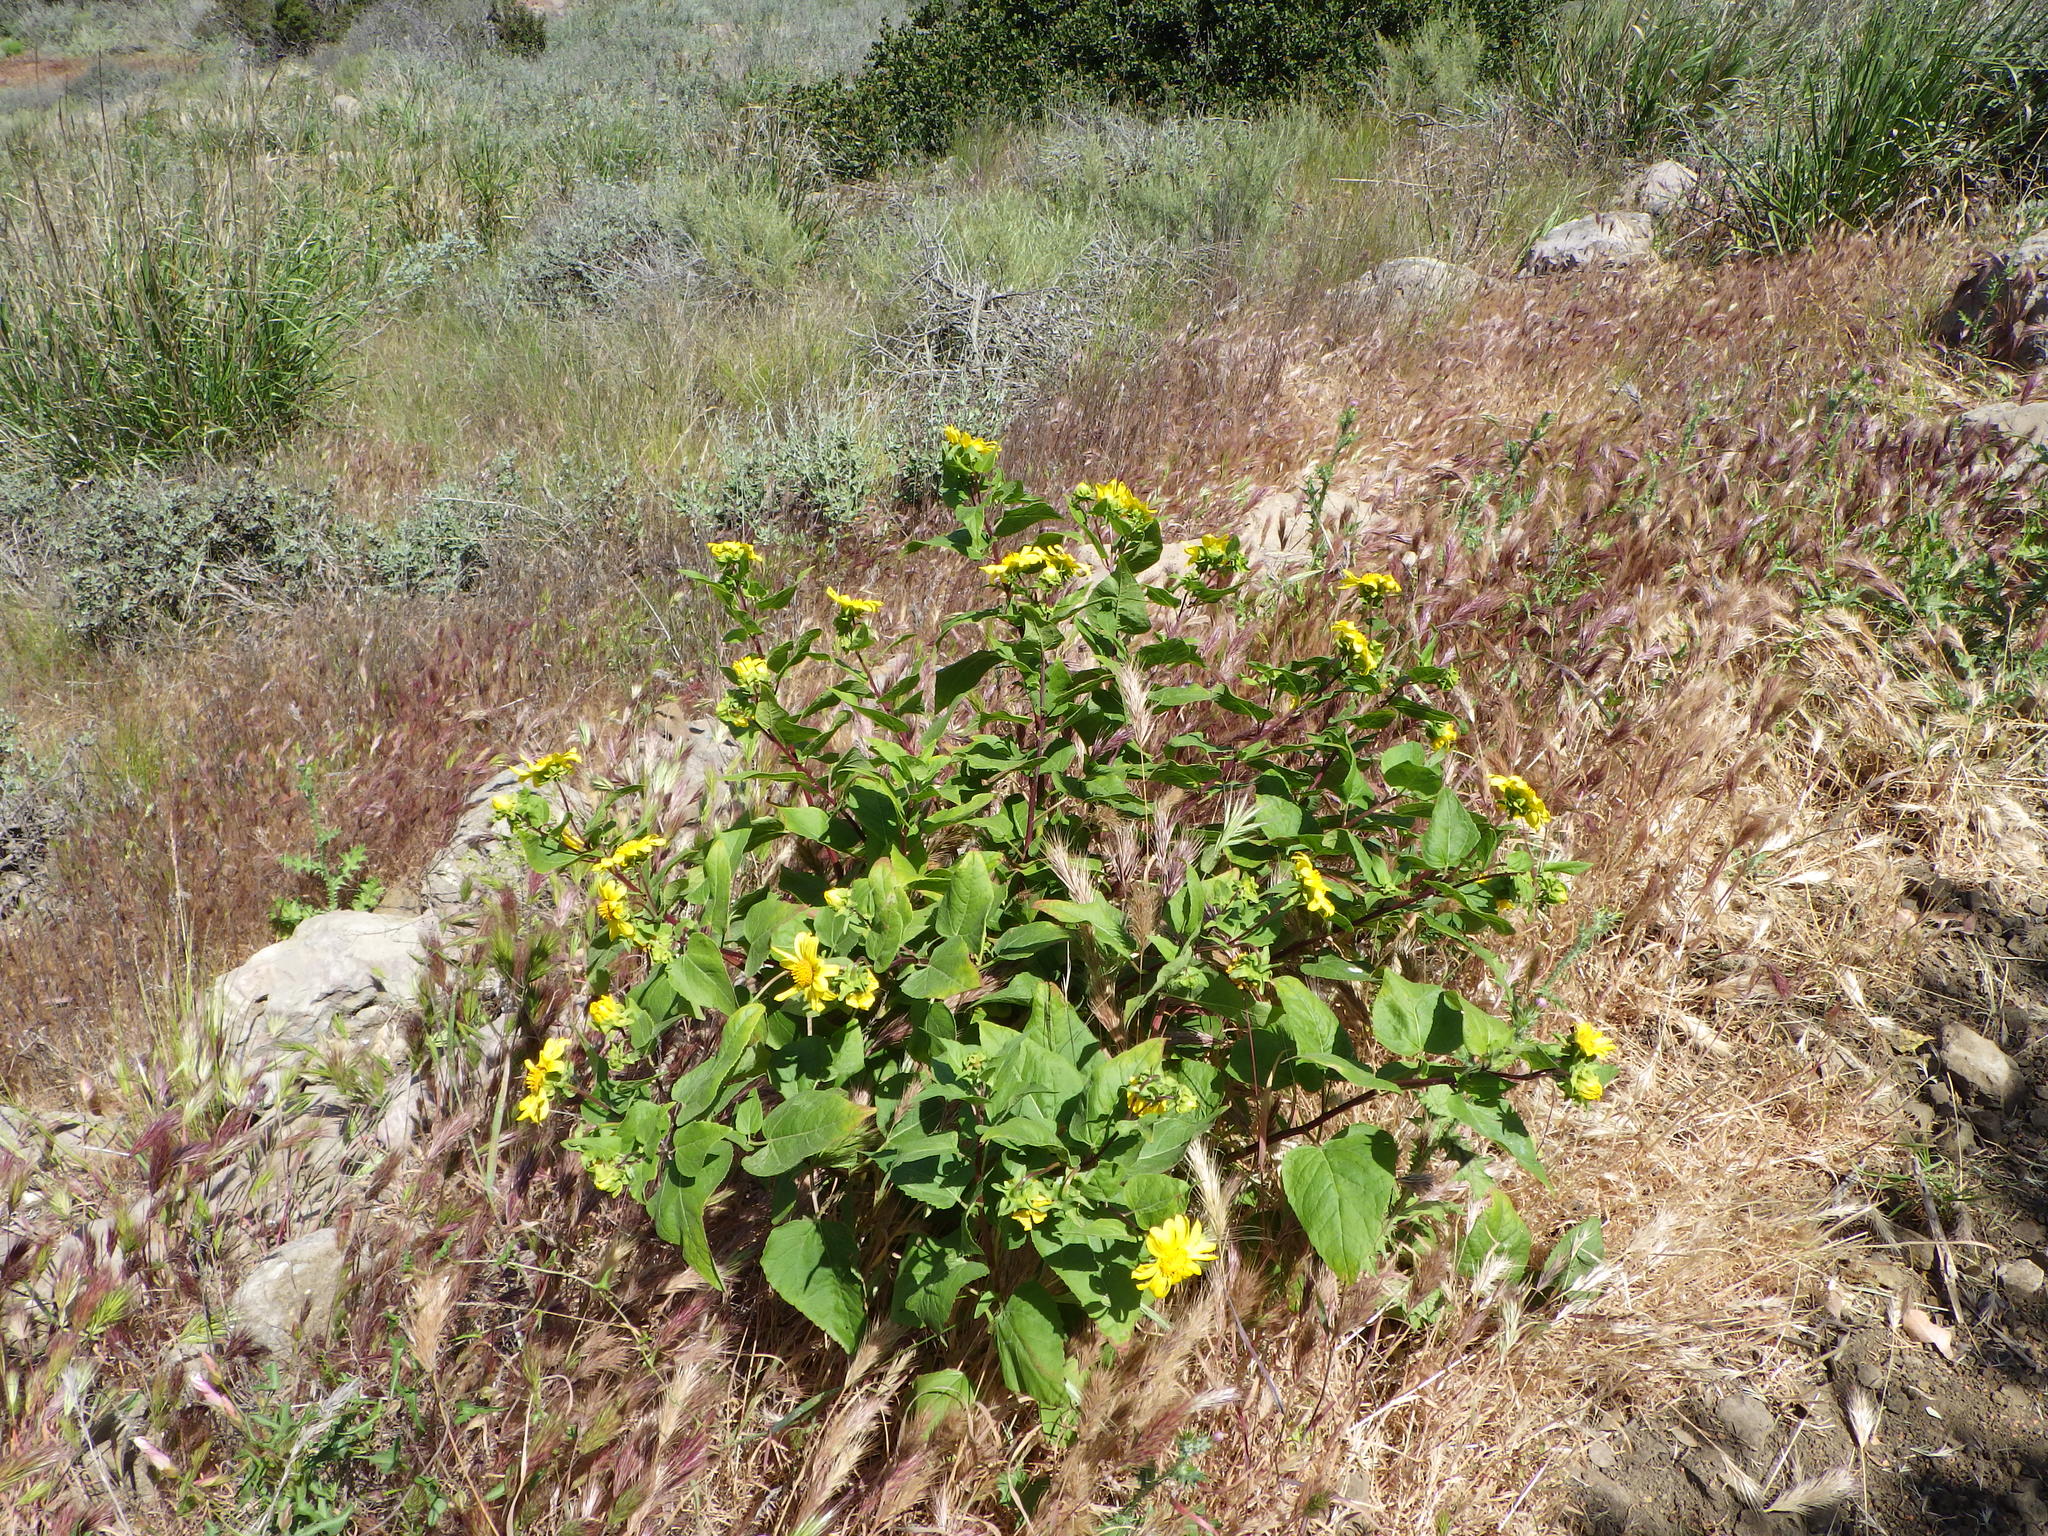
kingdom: Plantae
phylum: Tracheophyta
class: Magnoliopsida
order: Asterales
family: Asteraceae
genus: Venegasia
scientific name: Venegasia carpesioides
